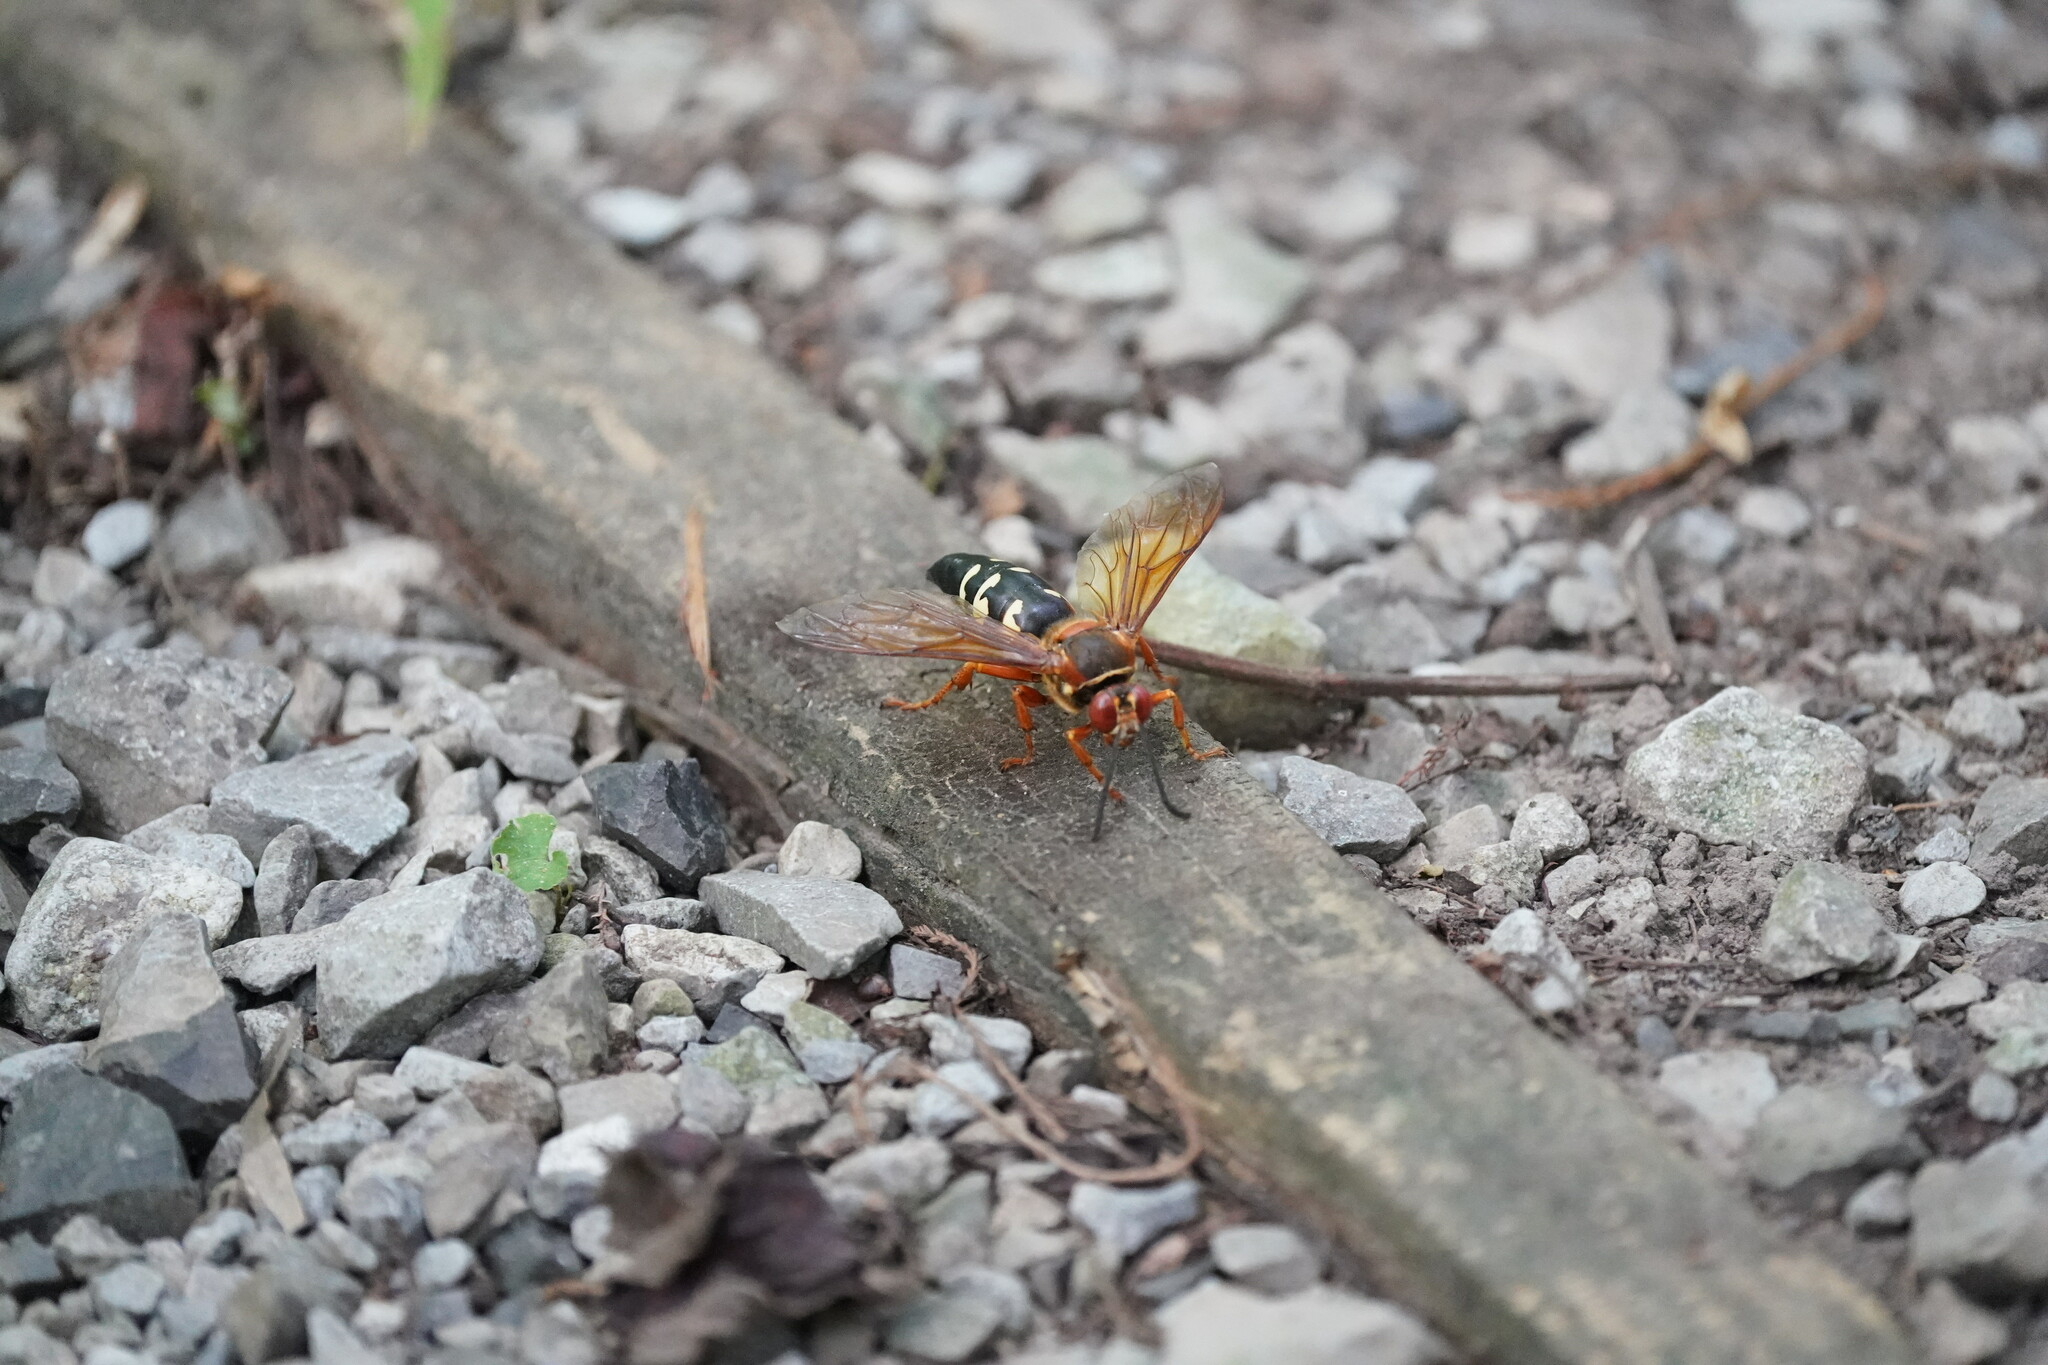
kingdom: Animalia
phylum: Arthropoda
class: Insecta
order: Hymenoptera
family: Crabronidae
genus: Sphecius
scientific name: Sphecius speciosus
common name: Cicada killer
